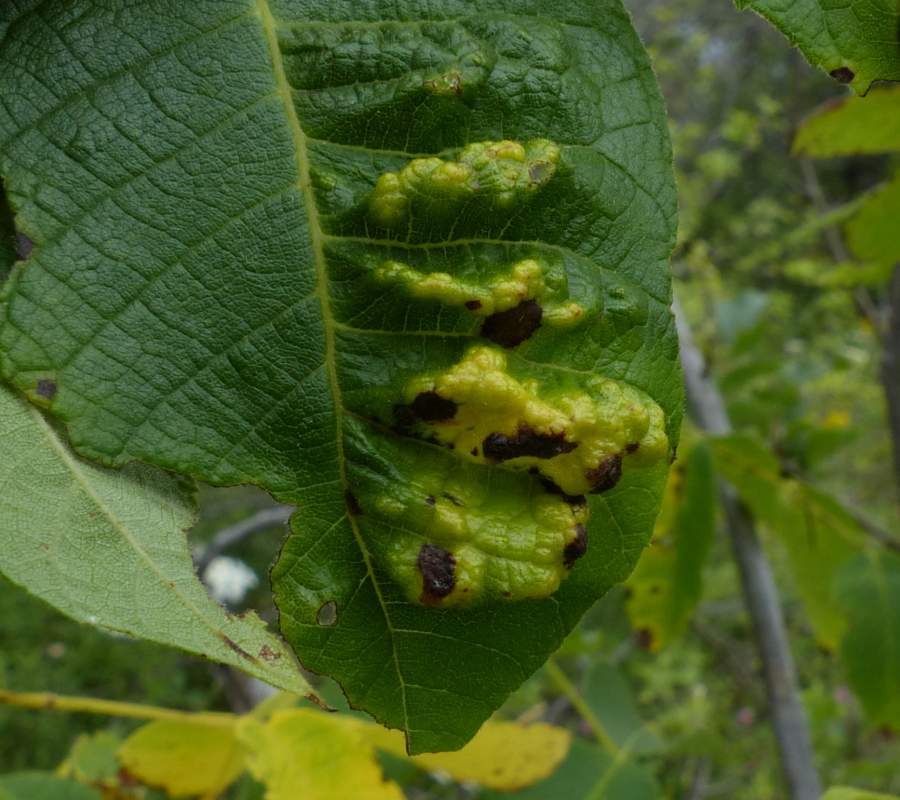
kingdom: Animalia
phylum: Arthropoda
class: Arachnida
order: Trombidiformes
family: Eriophyidae
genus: Aceria
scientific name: Aceria
